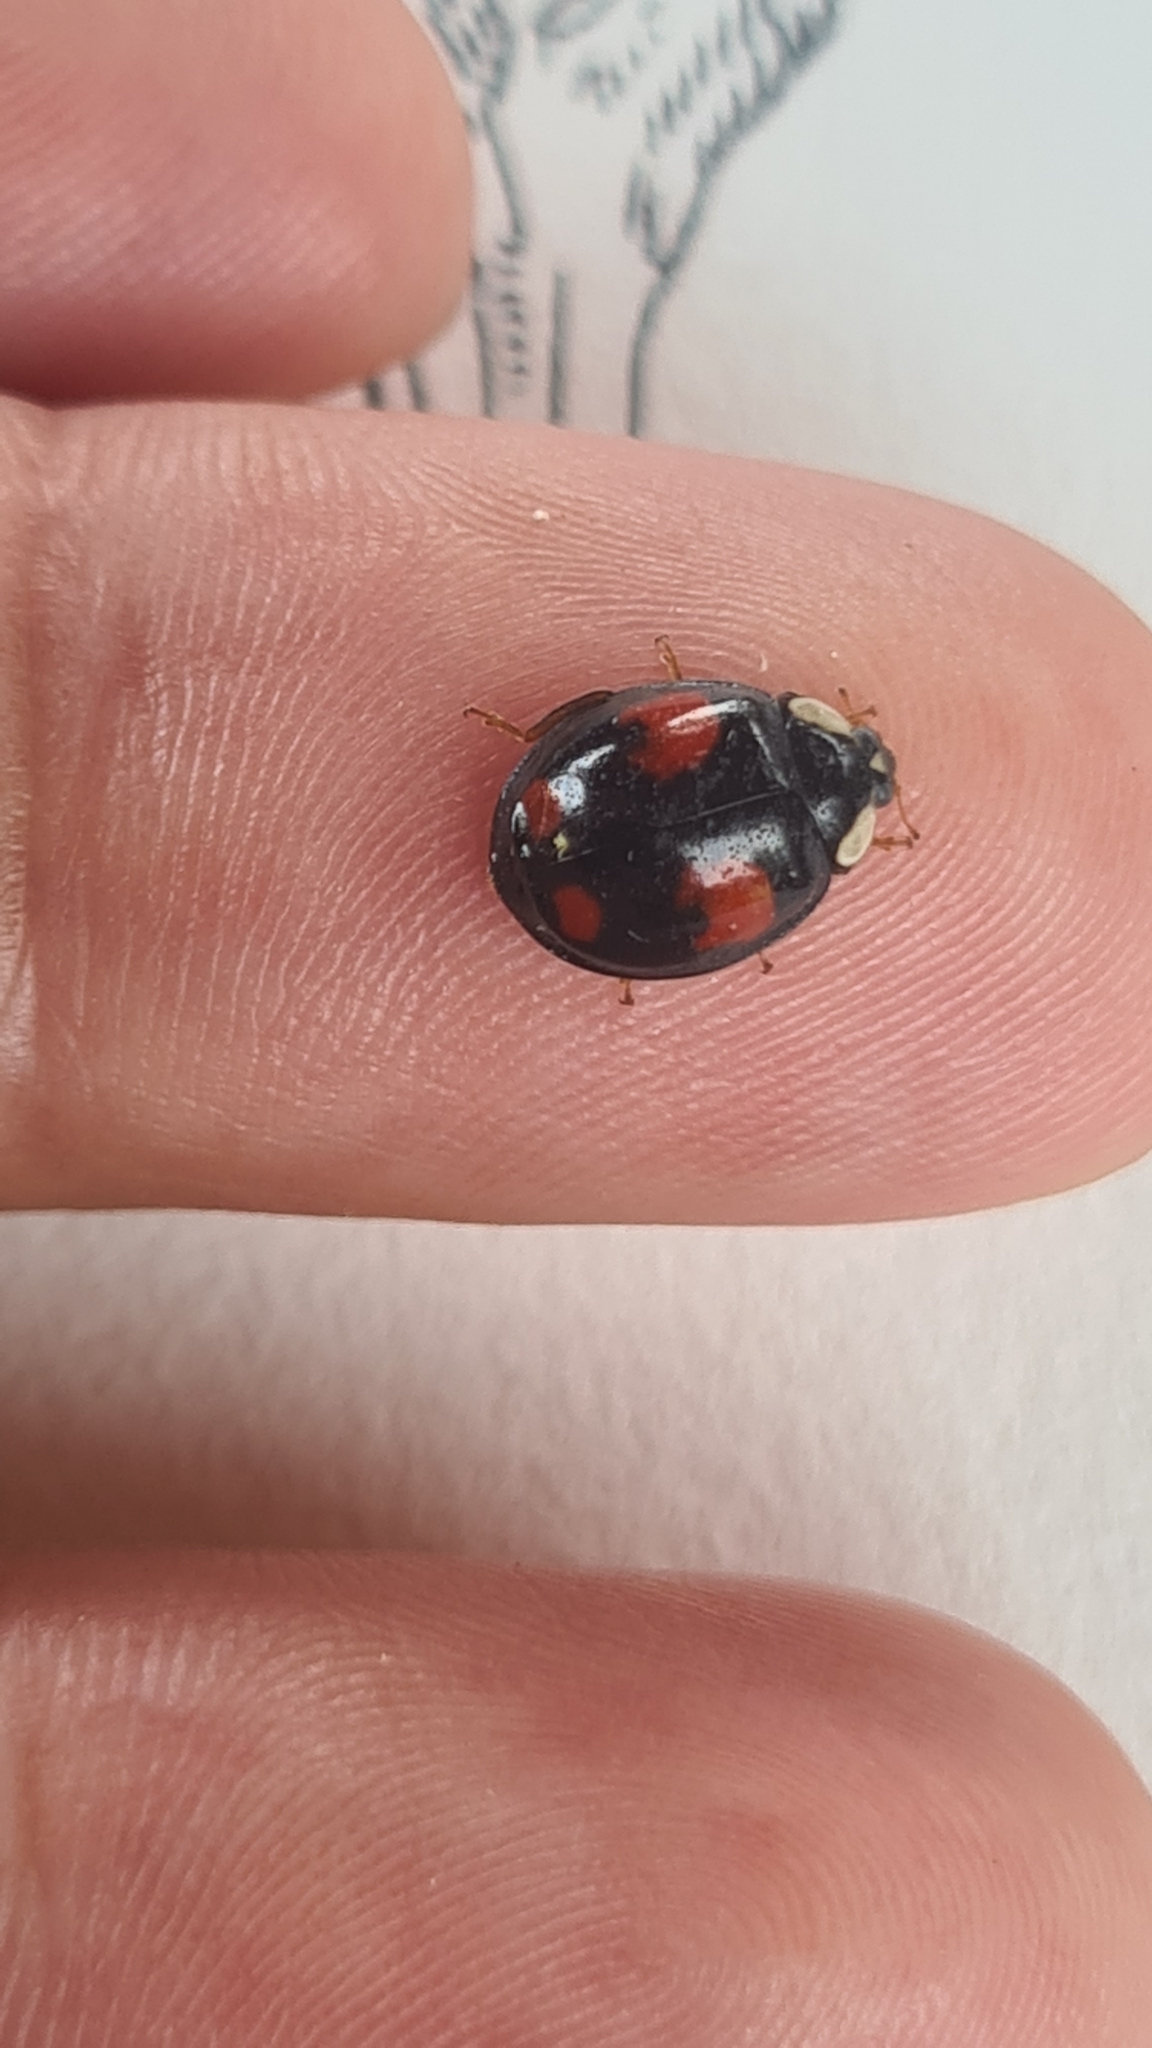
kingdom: Animalia
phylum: Arthropoda
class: Insecta
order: Coleoptera
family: Coccinellidae
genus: Harmonia
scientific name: Harmonia axyridis
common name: Harlequin ladybird
